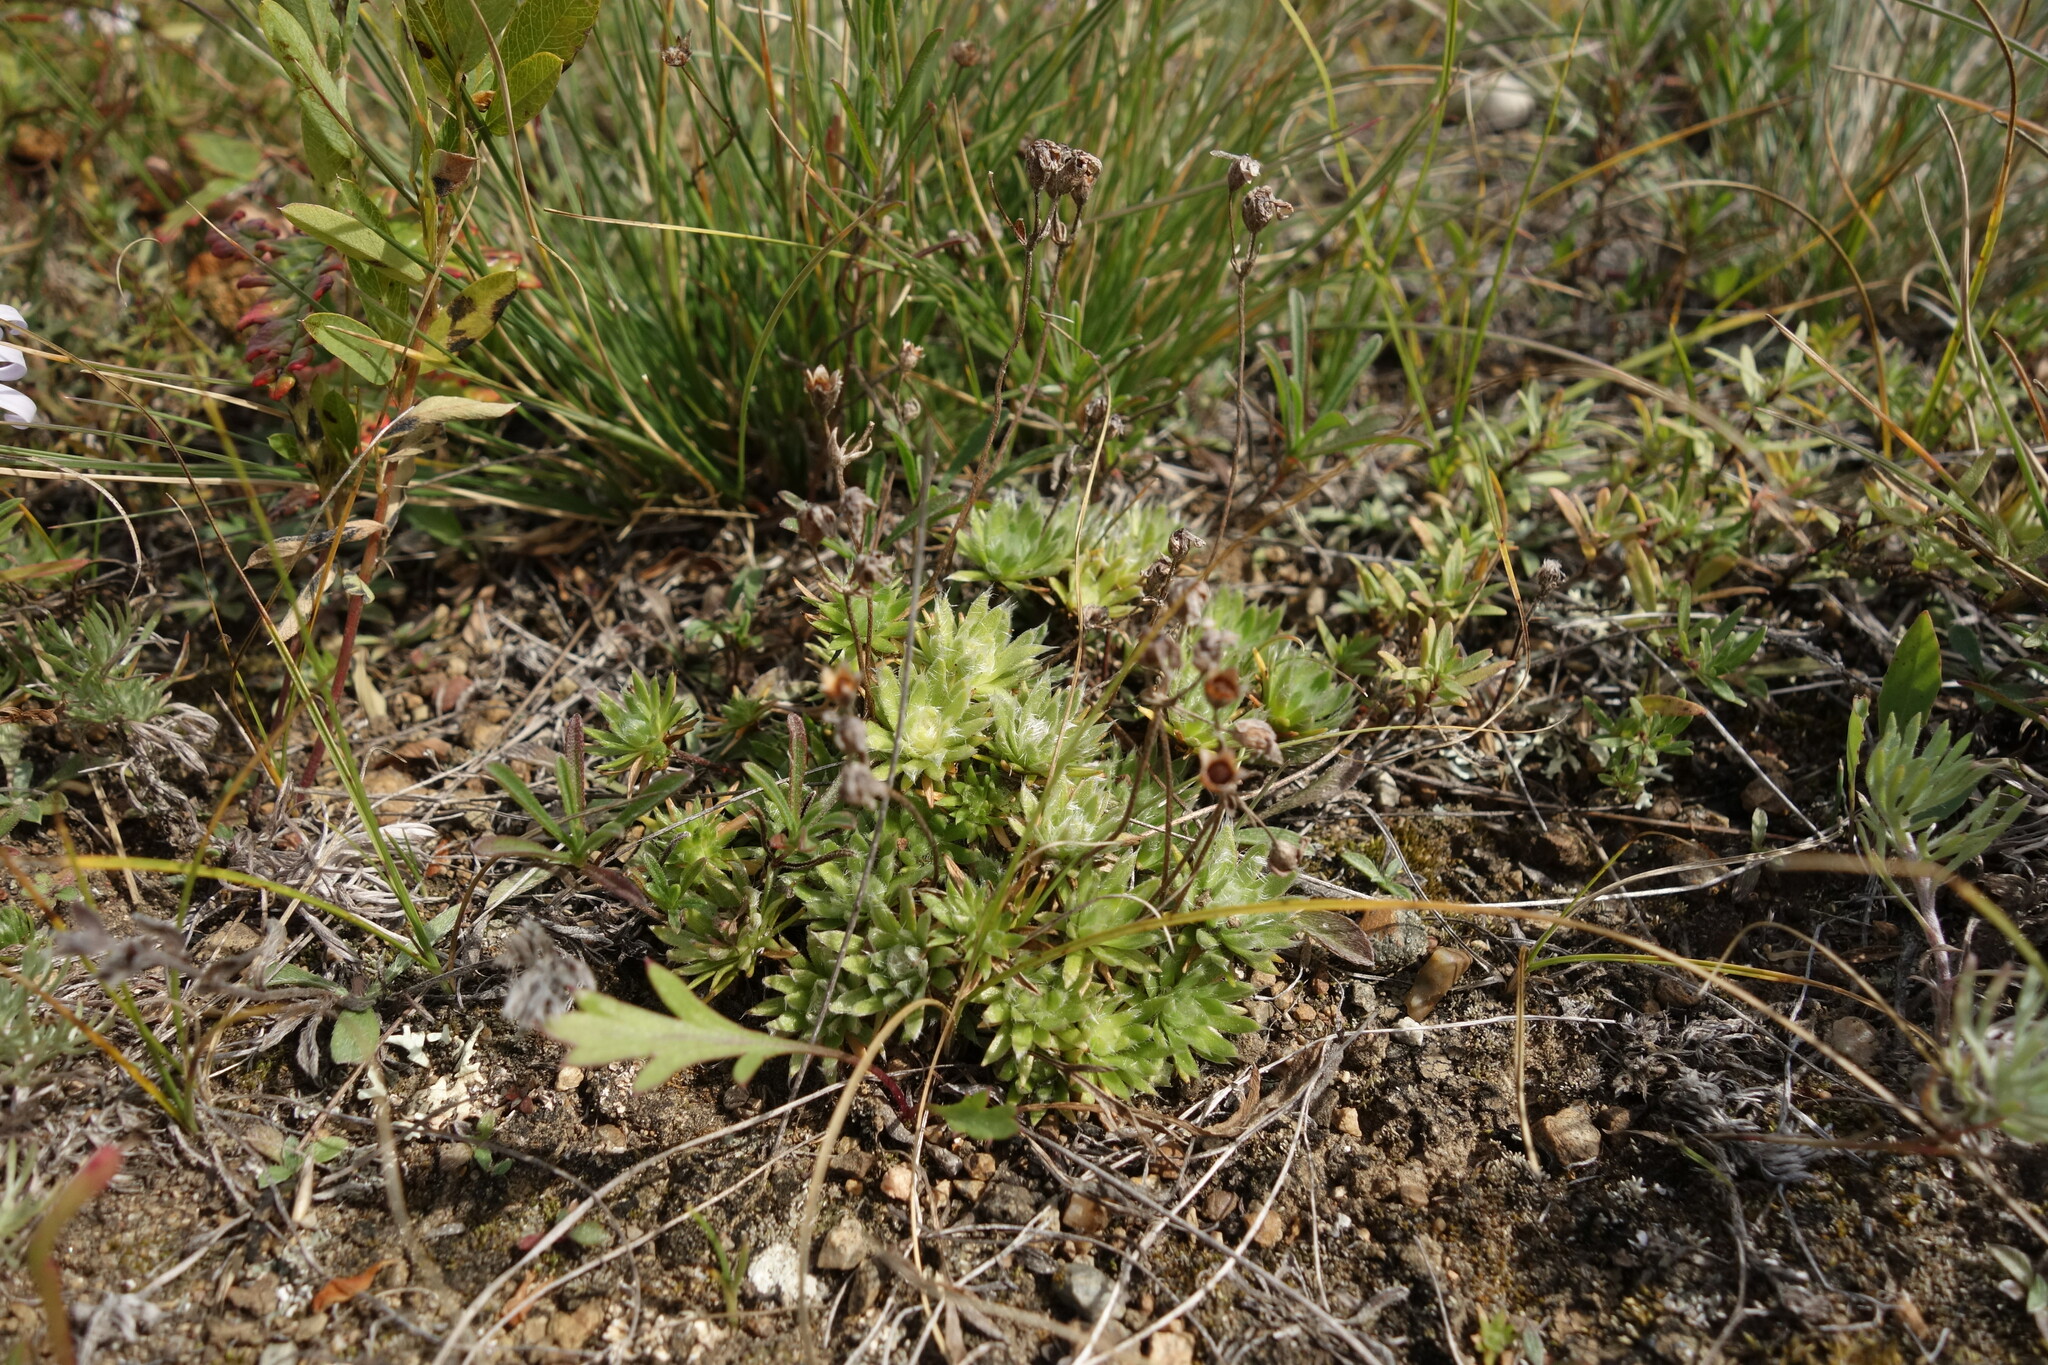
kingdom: Plantae
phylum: Tracheophyta
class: Magnoliopsida
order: Ericales
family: Primulaceae
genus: Androsace
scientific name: Androsace incana
